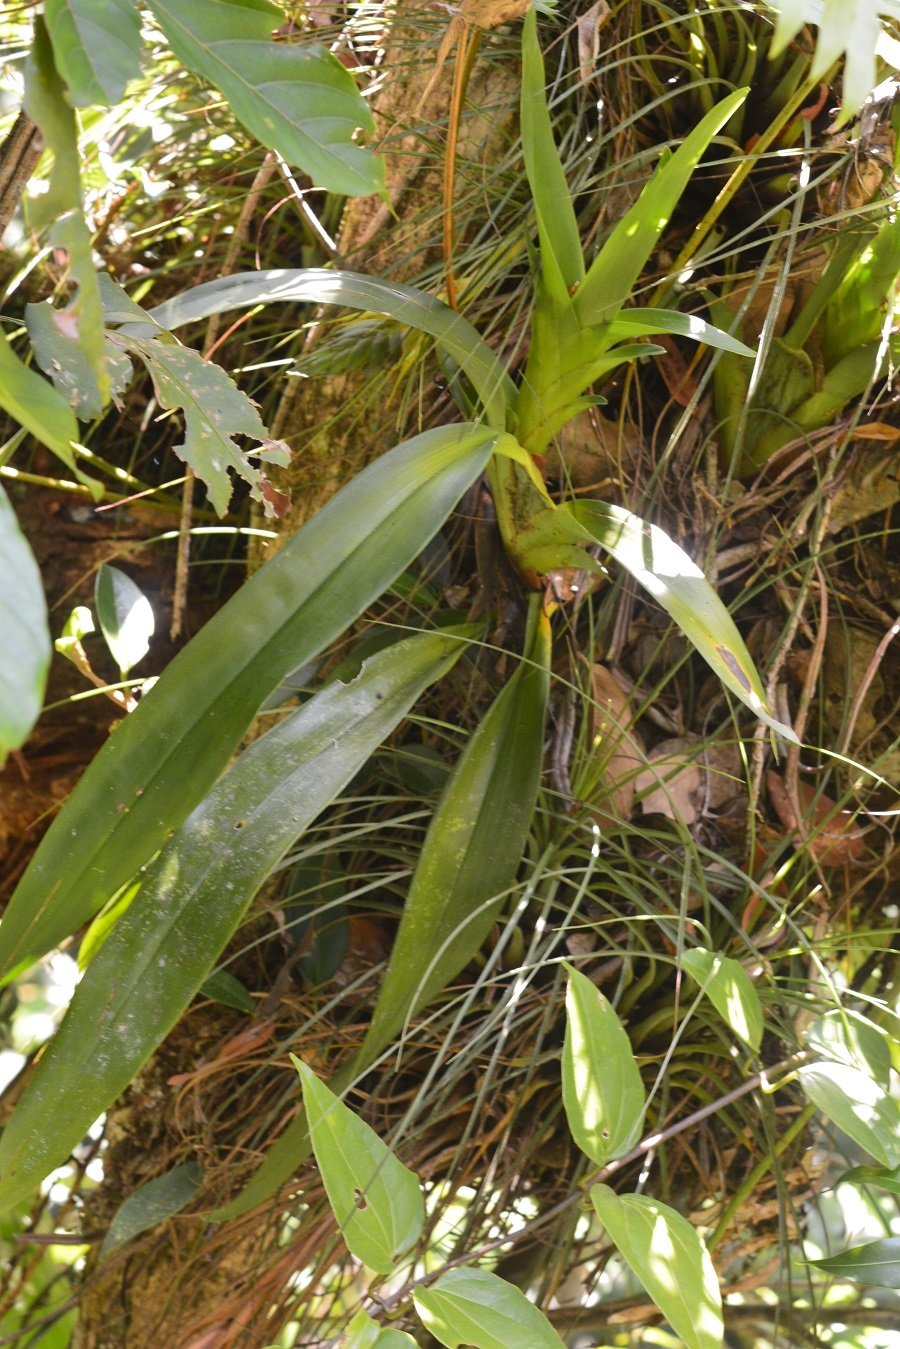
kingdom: Plantae
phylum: Tracheophyta
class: Liliopsida
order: Asparagales
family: Orchidaceae
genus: Maxillaria
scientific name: Maxillaria densa
